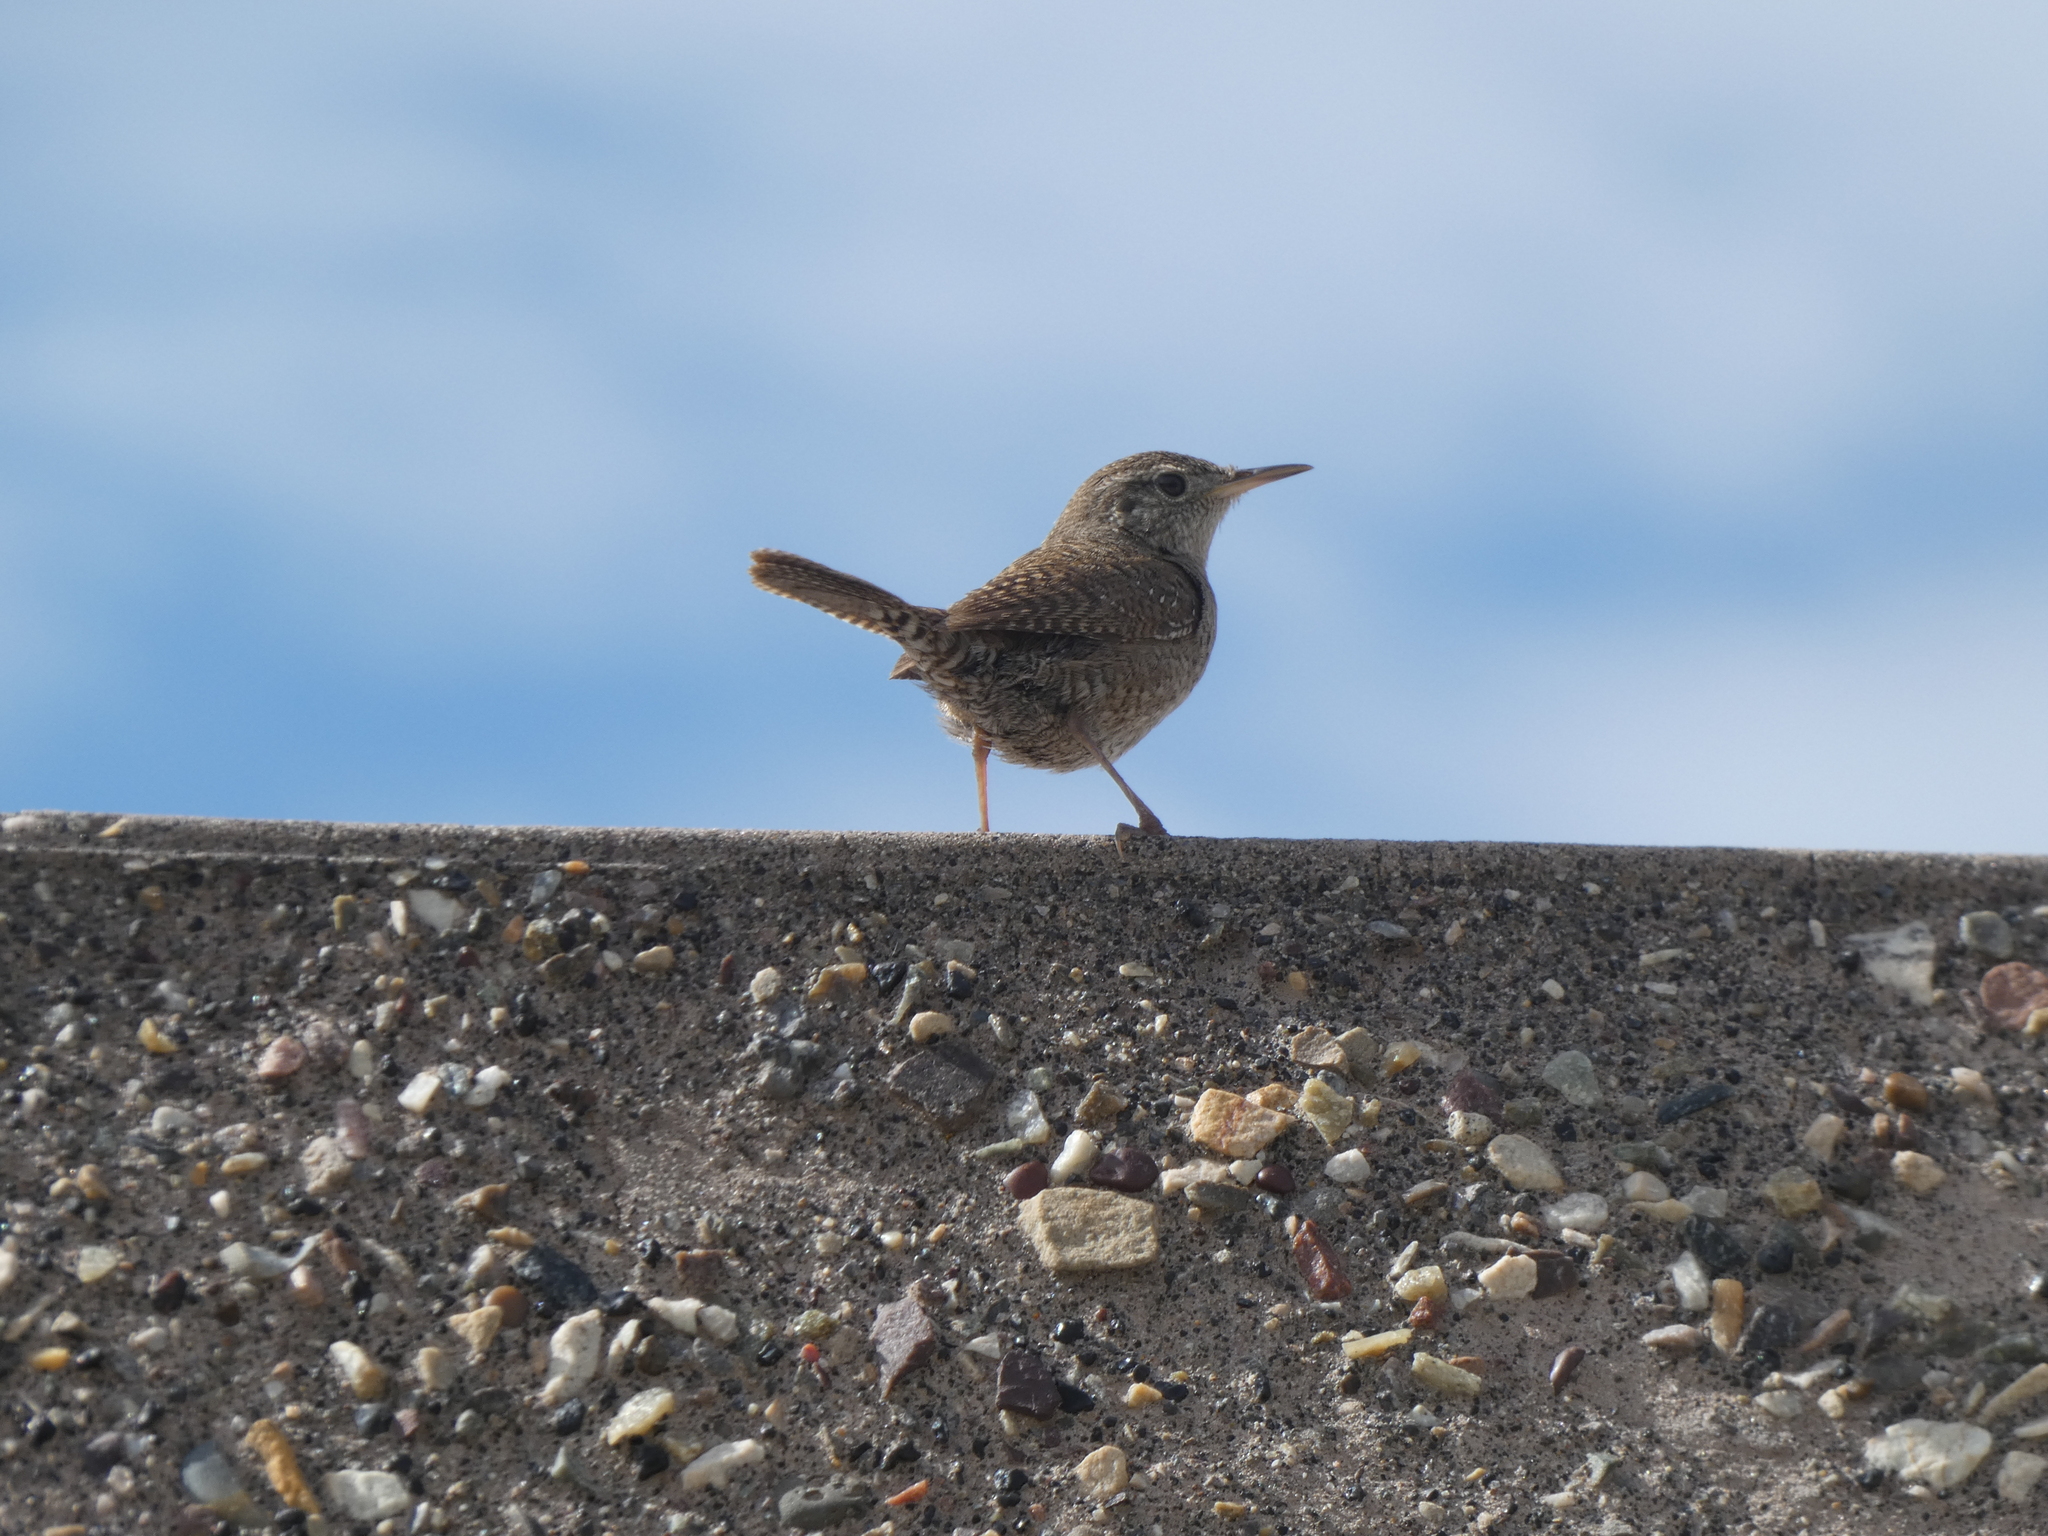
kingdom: Animalia
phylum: Chordata
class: Aves
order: Passeriformes
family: Troglodytidae
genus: Troglodytes
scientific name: Troglodytes aedon
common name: House wren
